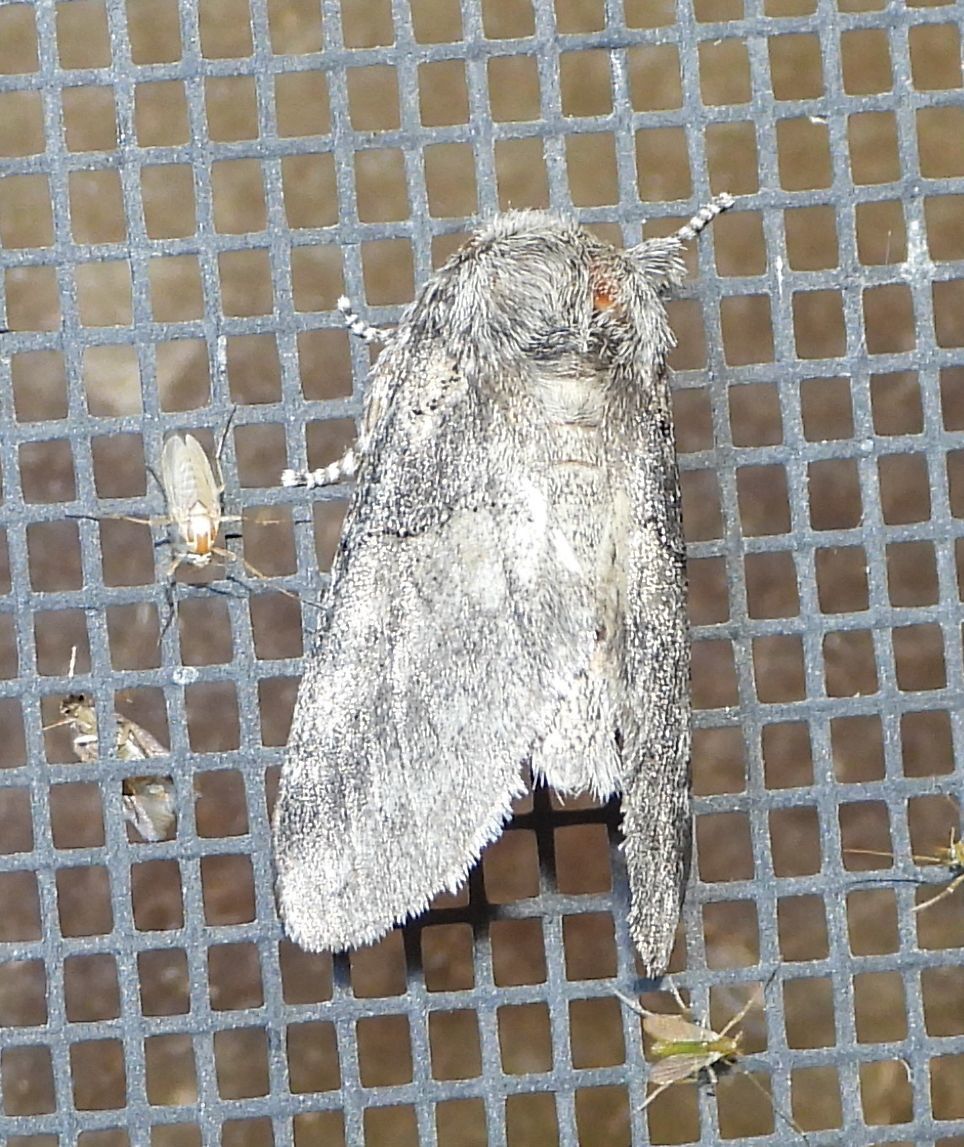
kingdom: Animalia
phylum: Arthropoda
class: Insecta
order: Lepidoptera
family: Notodontidae
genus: Gluphisia
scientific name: Gluphisia septentrionis
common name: Common gluphisia
